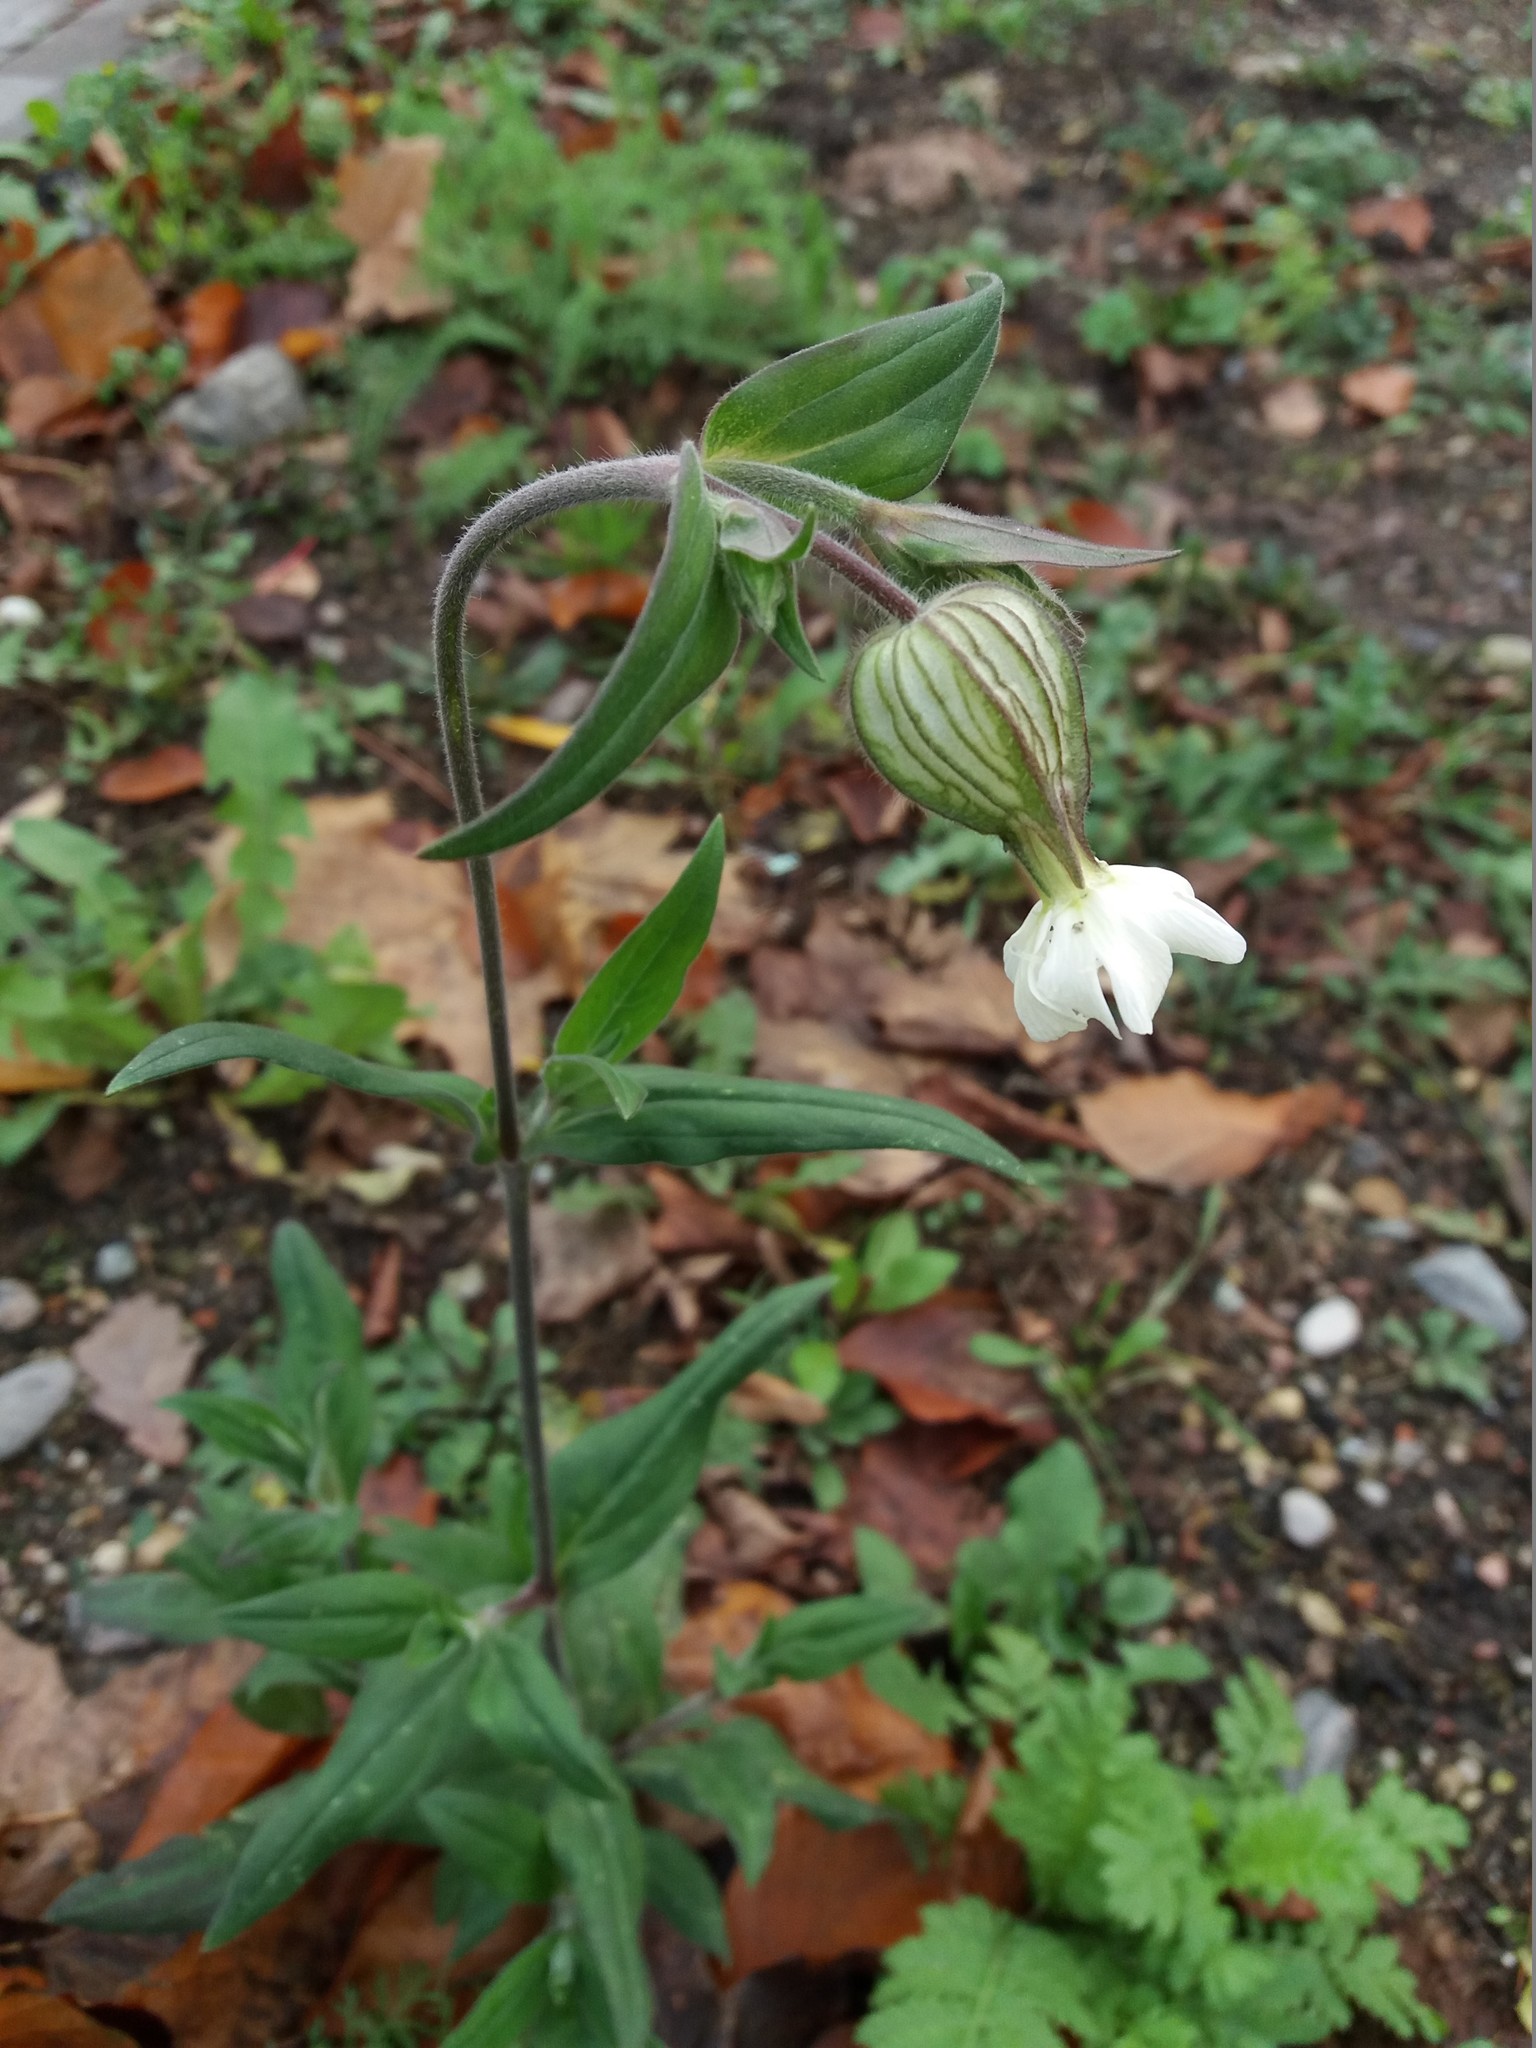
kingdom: Plantae
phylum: Tracheophyta
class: Magnoliopsida
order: Caryophyllales
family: Caryophyllaceae
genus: Silene
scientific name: Silene latifolia
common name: White campion
